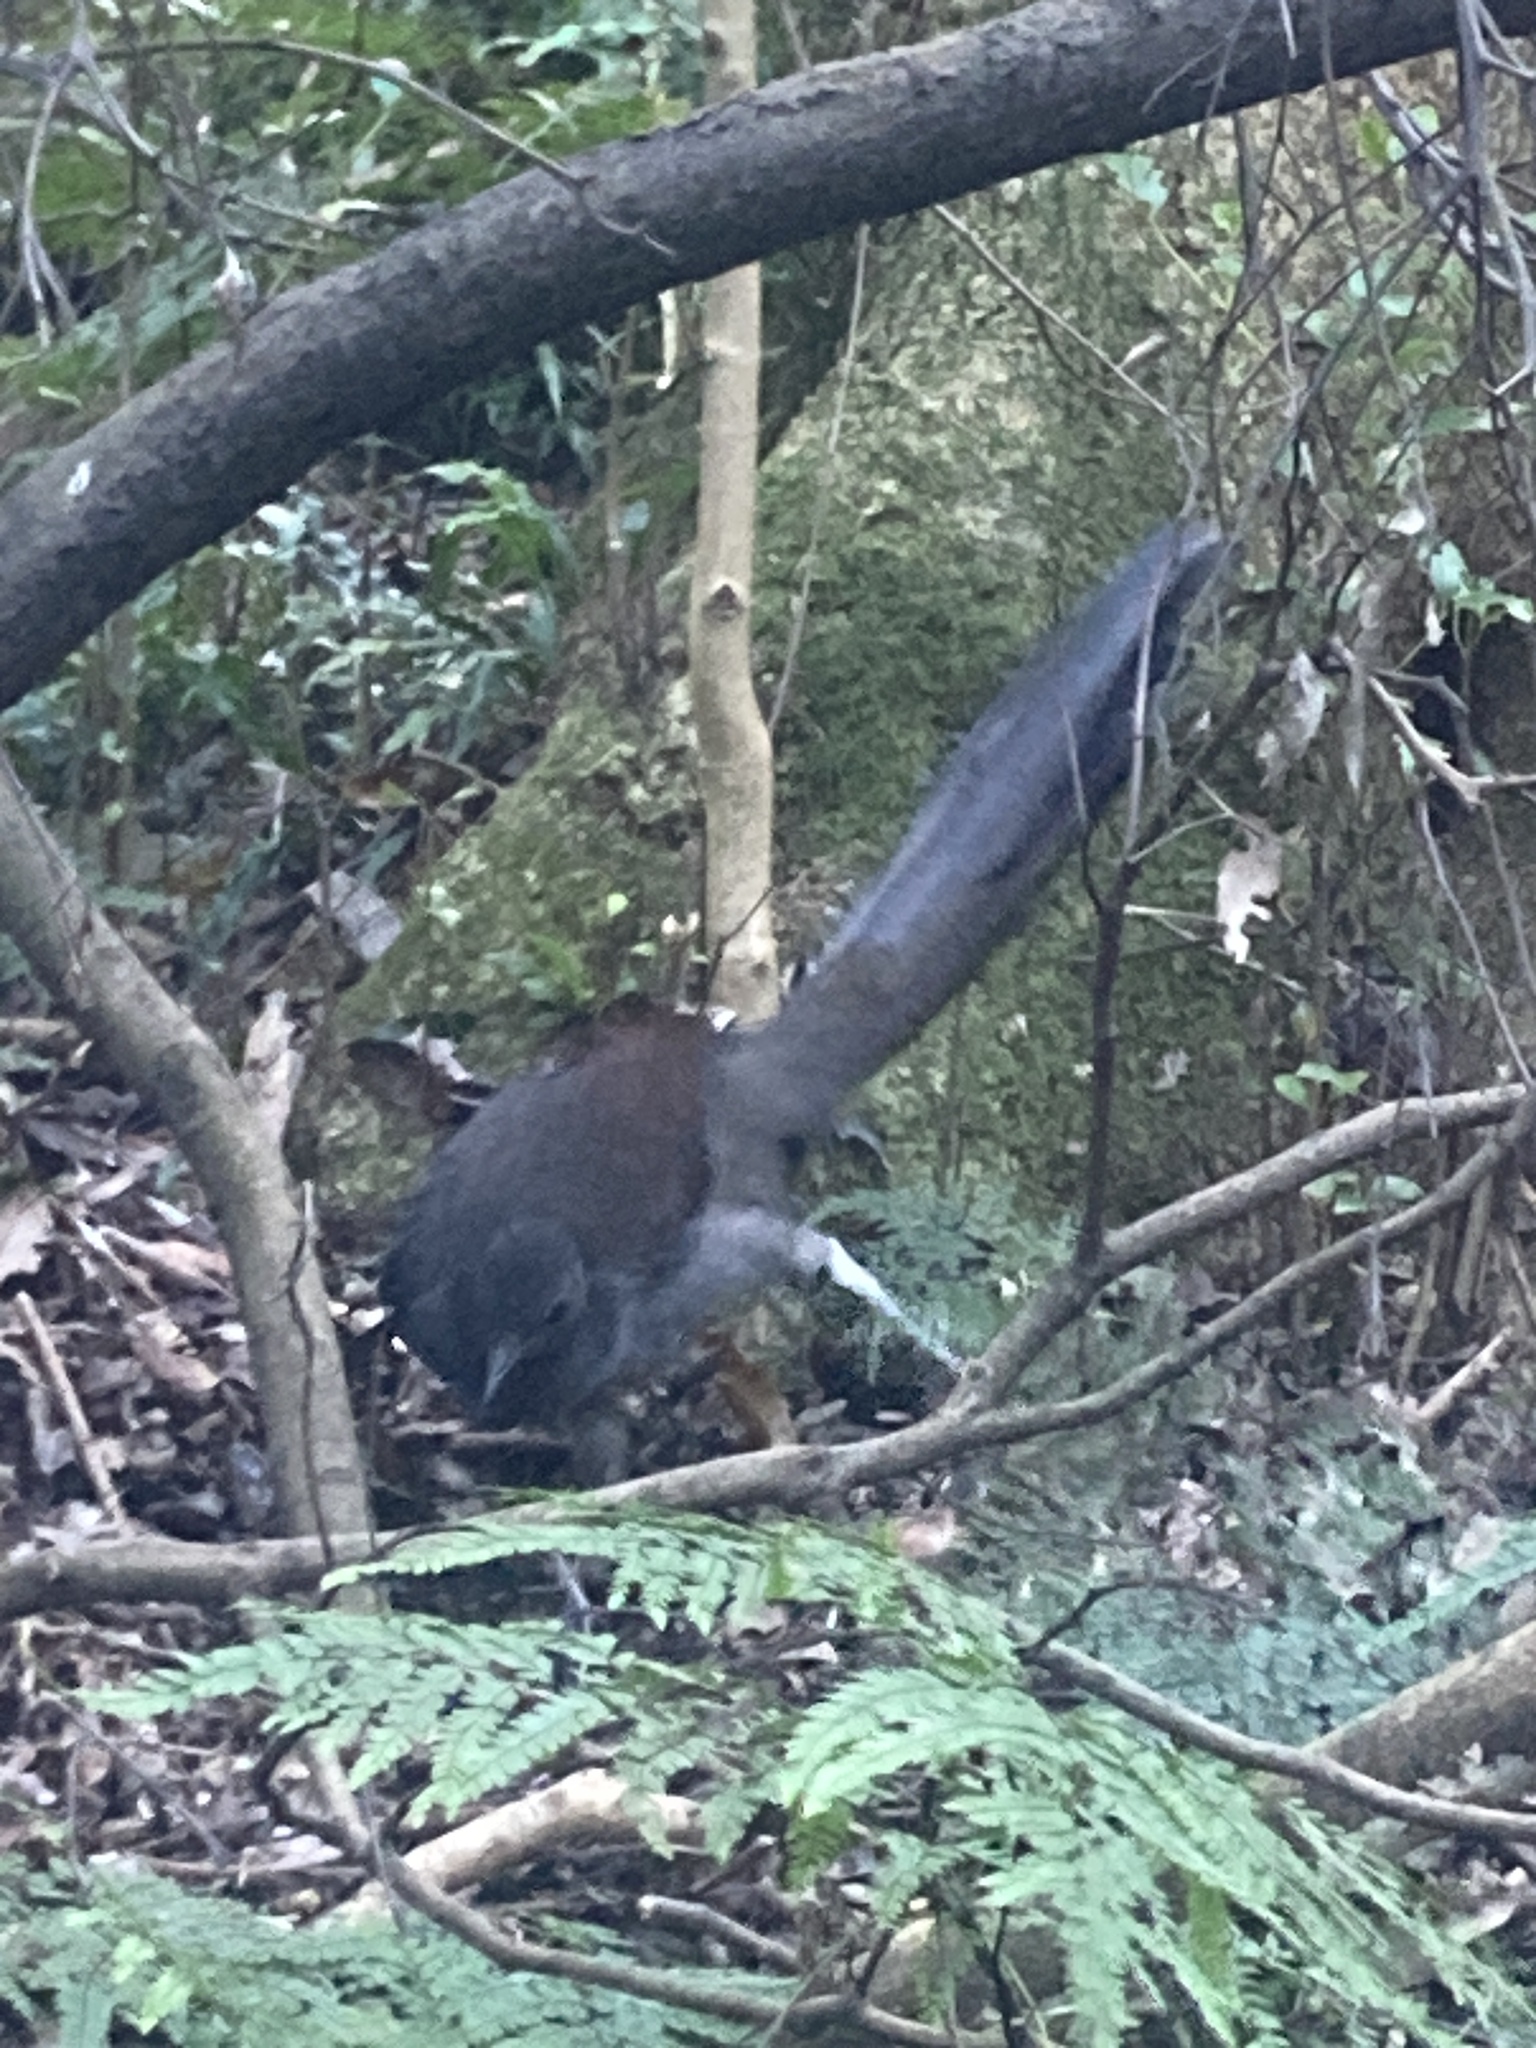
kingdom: Animalia
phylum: Chordata
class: Aves
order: Passeriformes
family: Menuridae
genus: Menura
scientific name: Menura novaehollandiae
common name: Superb lyrebird
